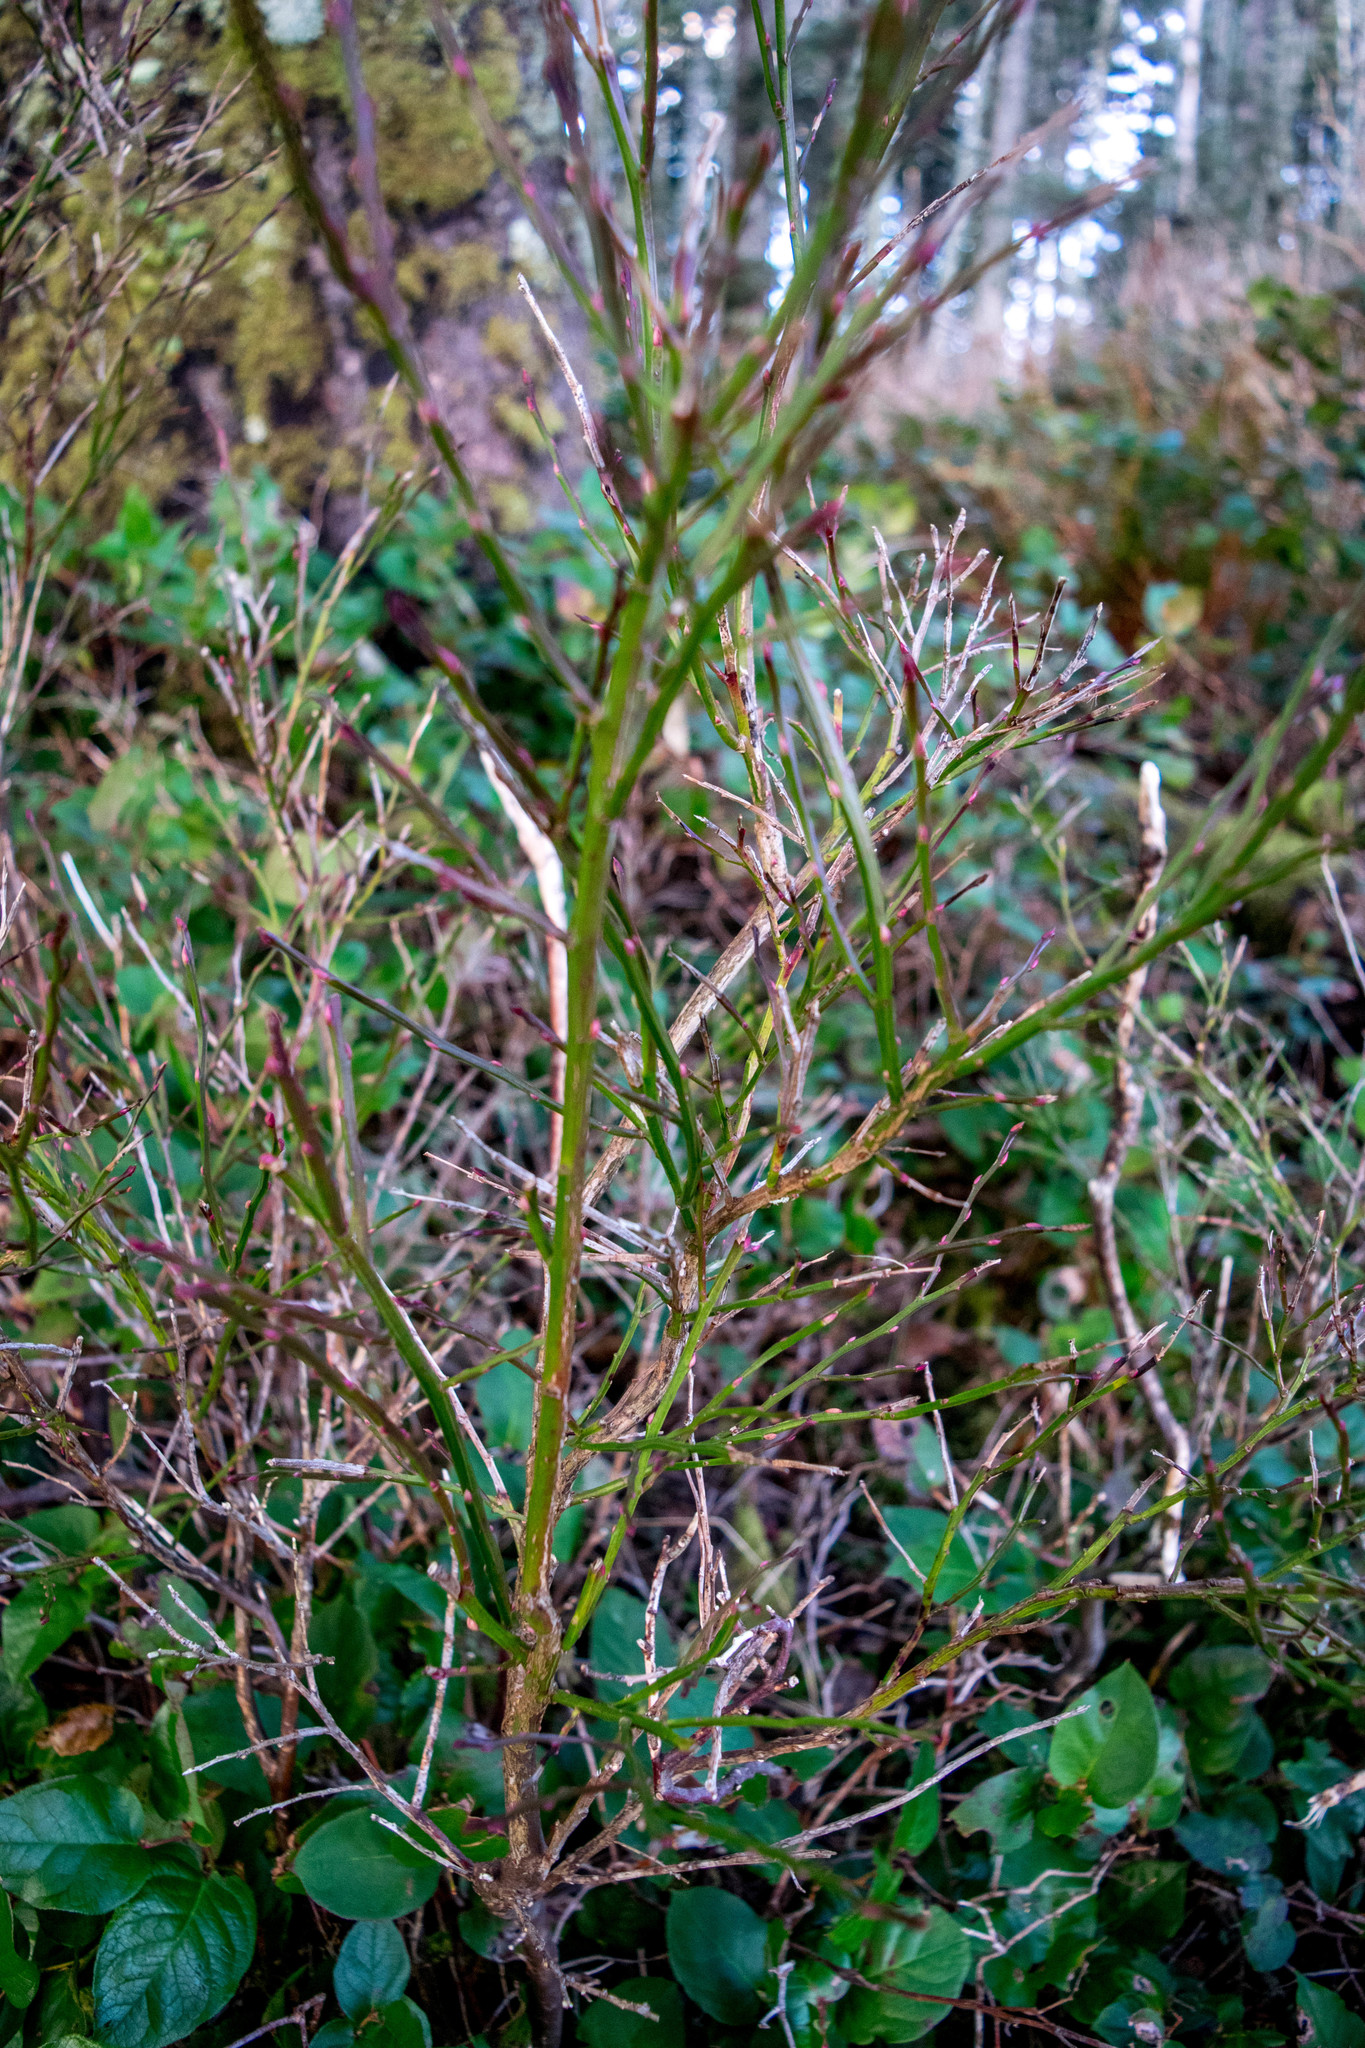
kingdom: Plantae
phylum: Tracheophyta
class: Magnoliopsida
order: Ericales
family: Ericaceae
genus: Vaccinium
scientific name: Vaccinium parvifolium
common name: Red-huckleberry
